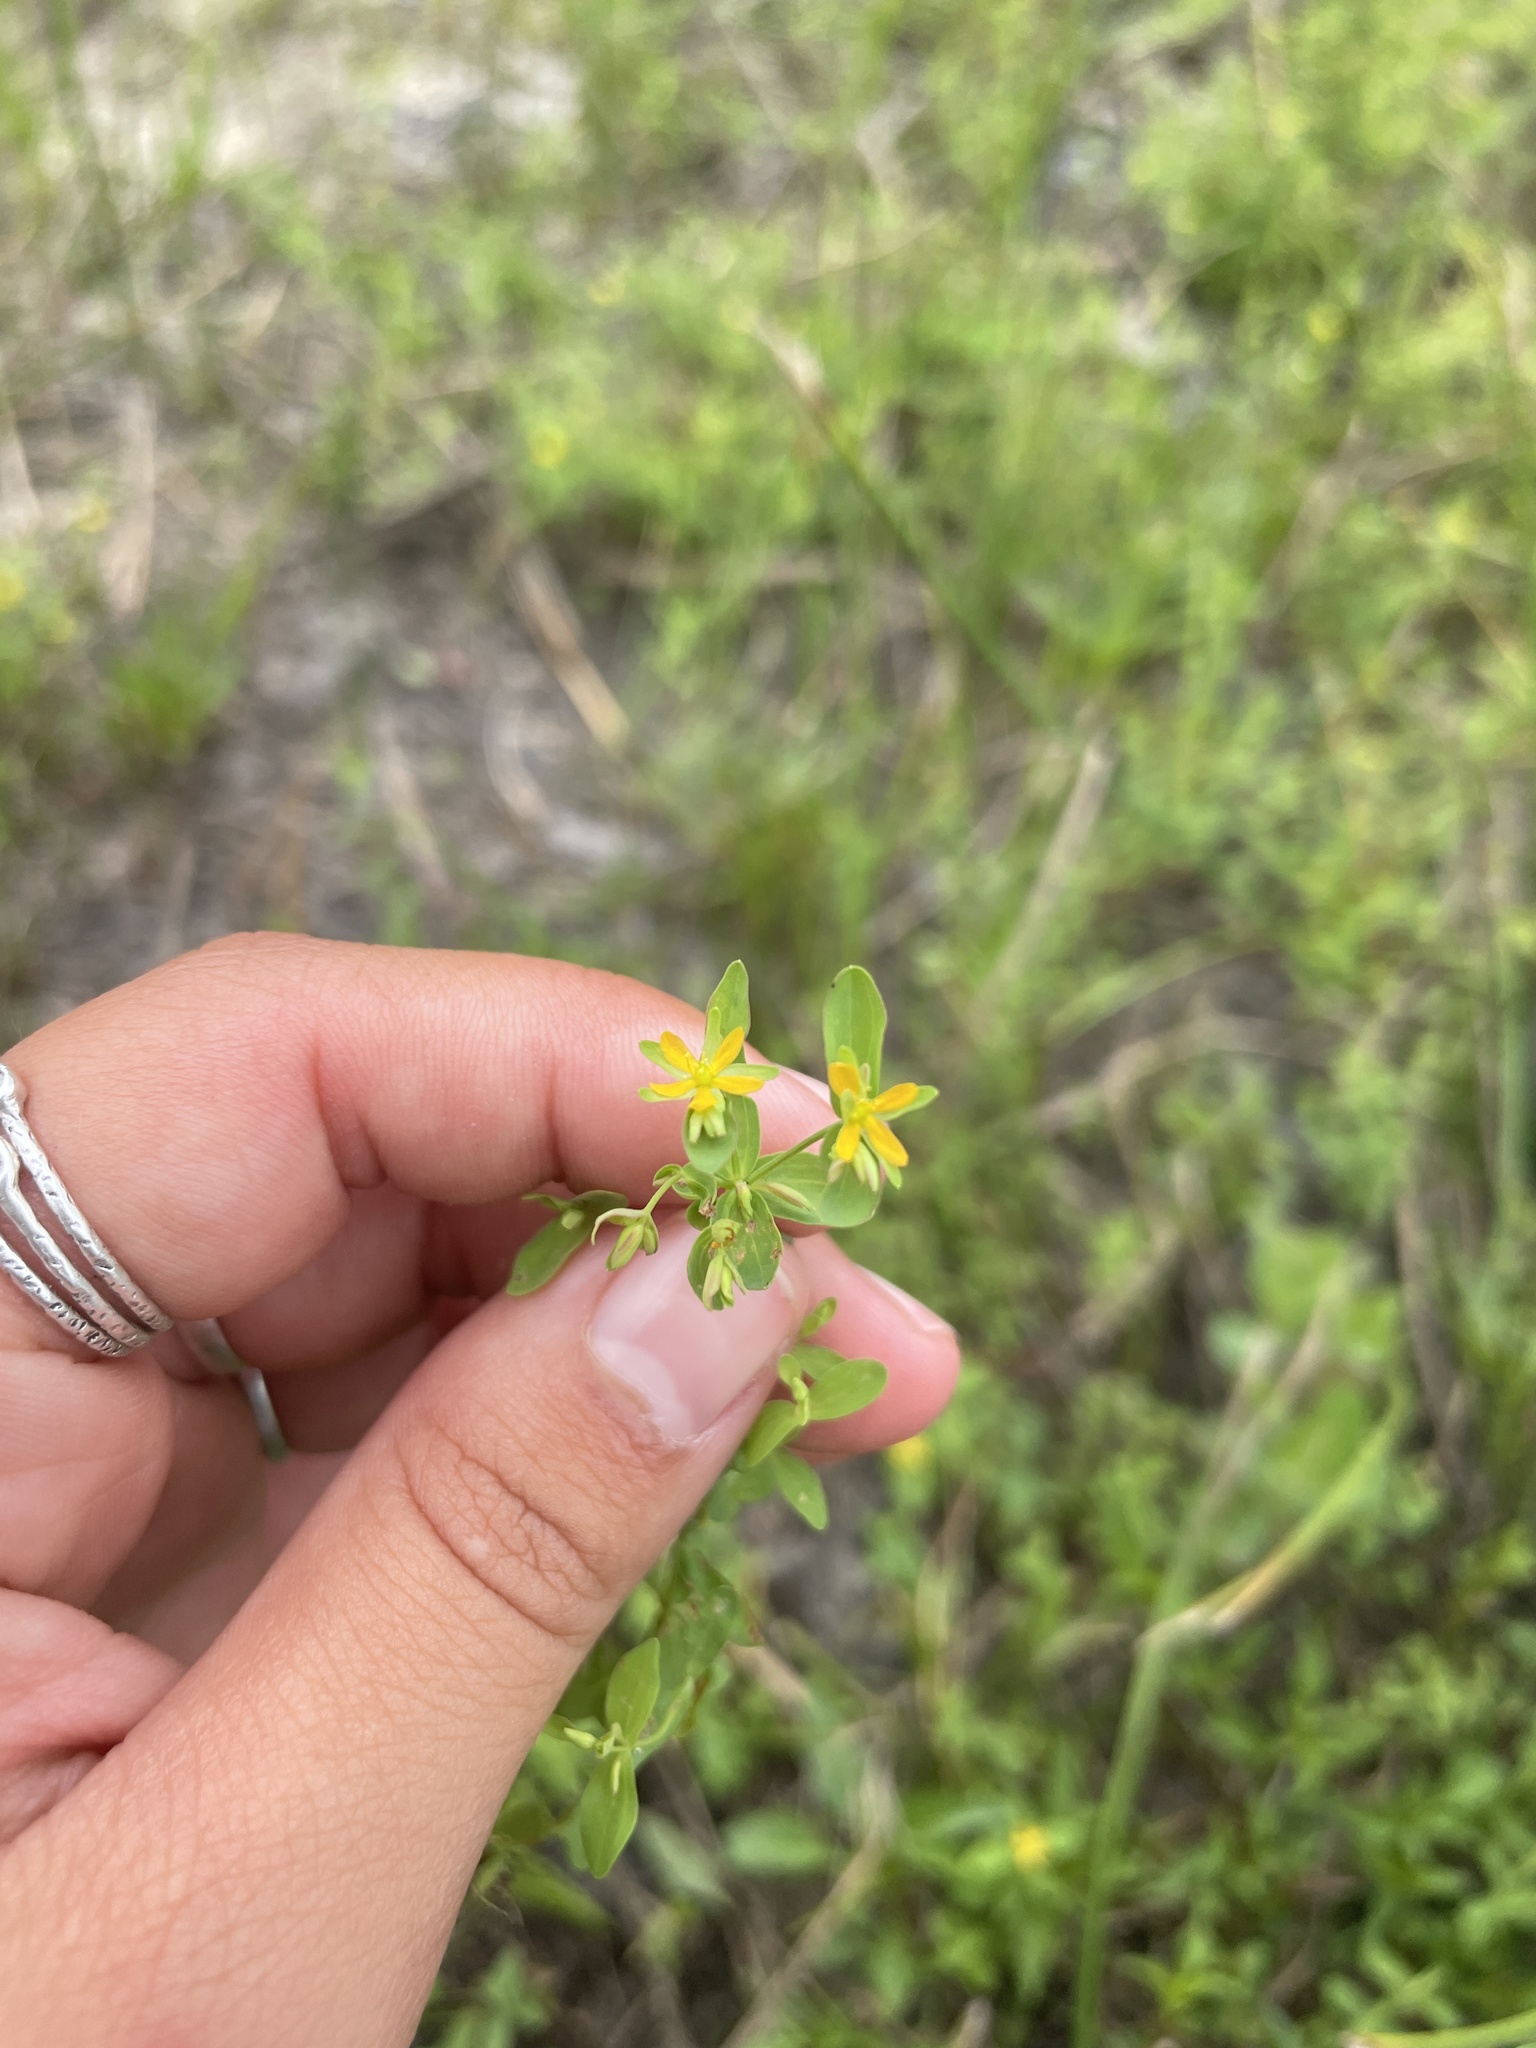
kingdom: Plantae
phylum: Tracheophyta
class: Magnoliopsida
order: Malpighiales
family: Hypericaceae
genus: Hypericum
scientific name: Hypericum mutilum
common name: Dwarf st. john's-wort
